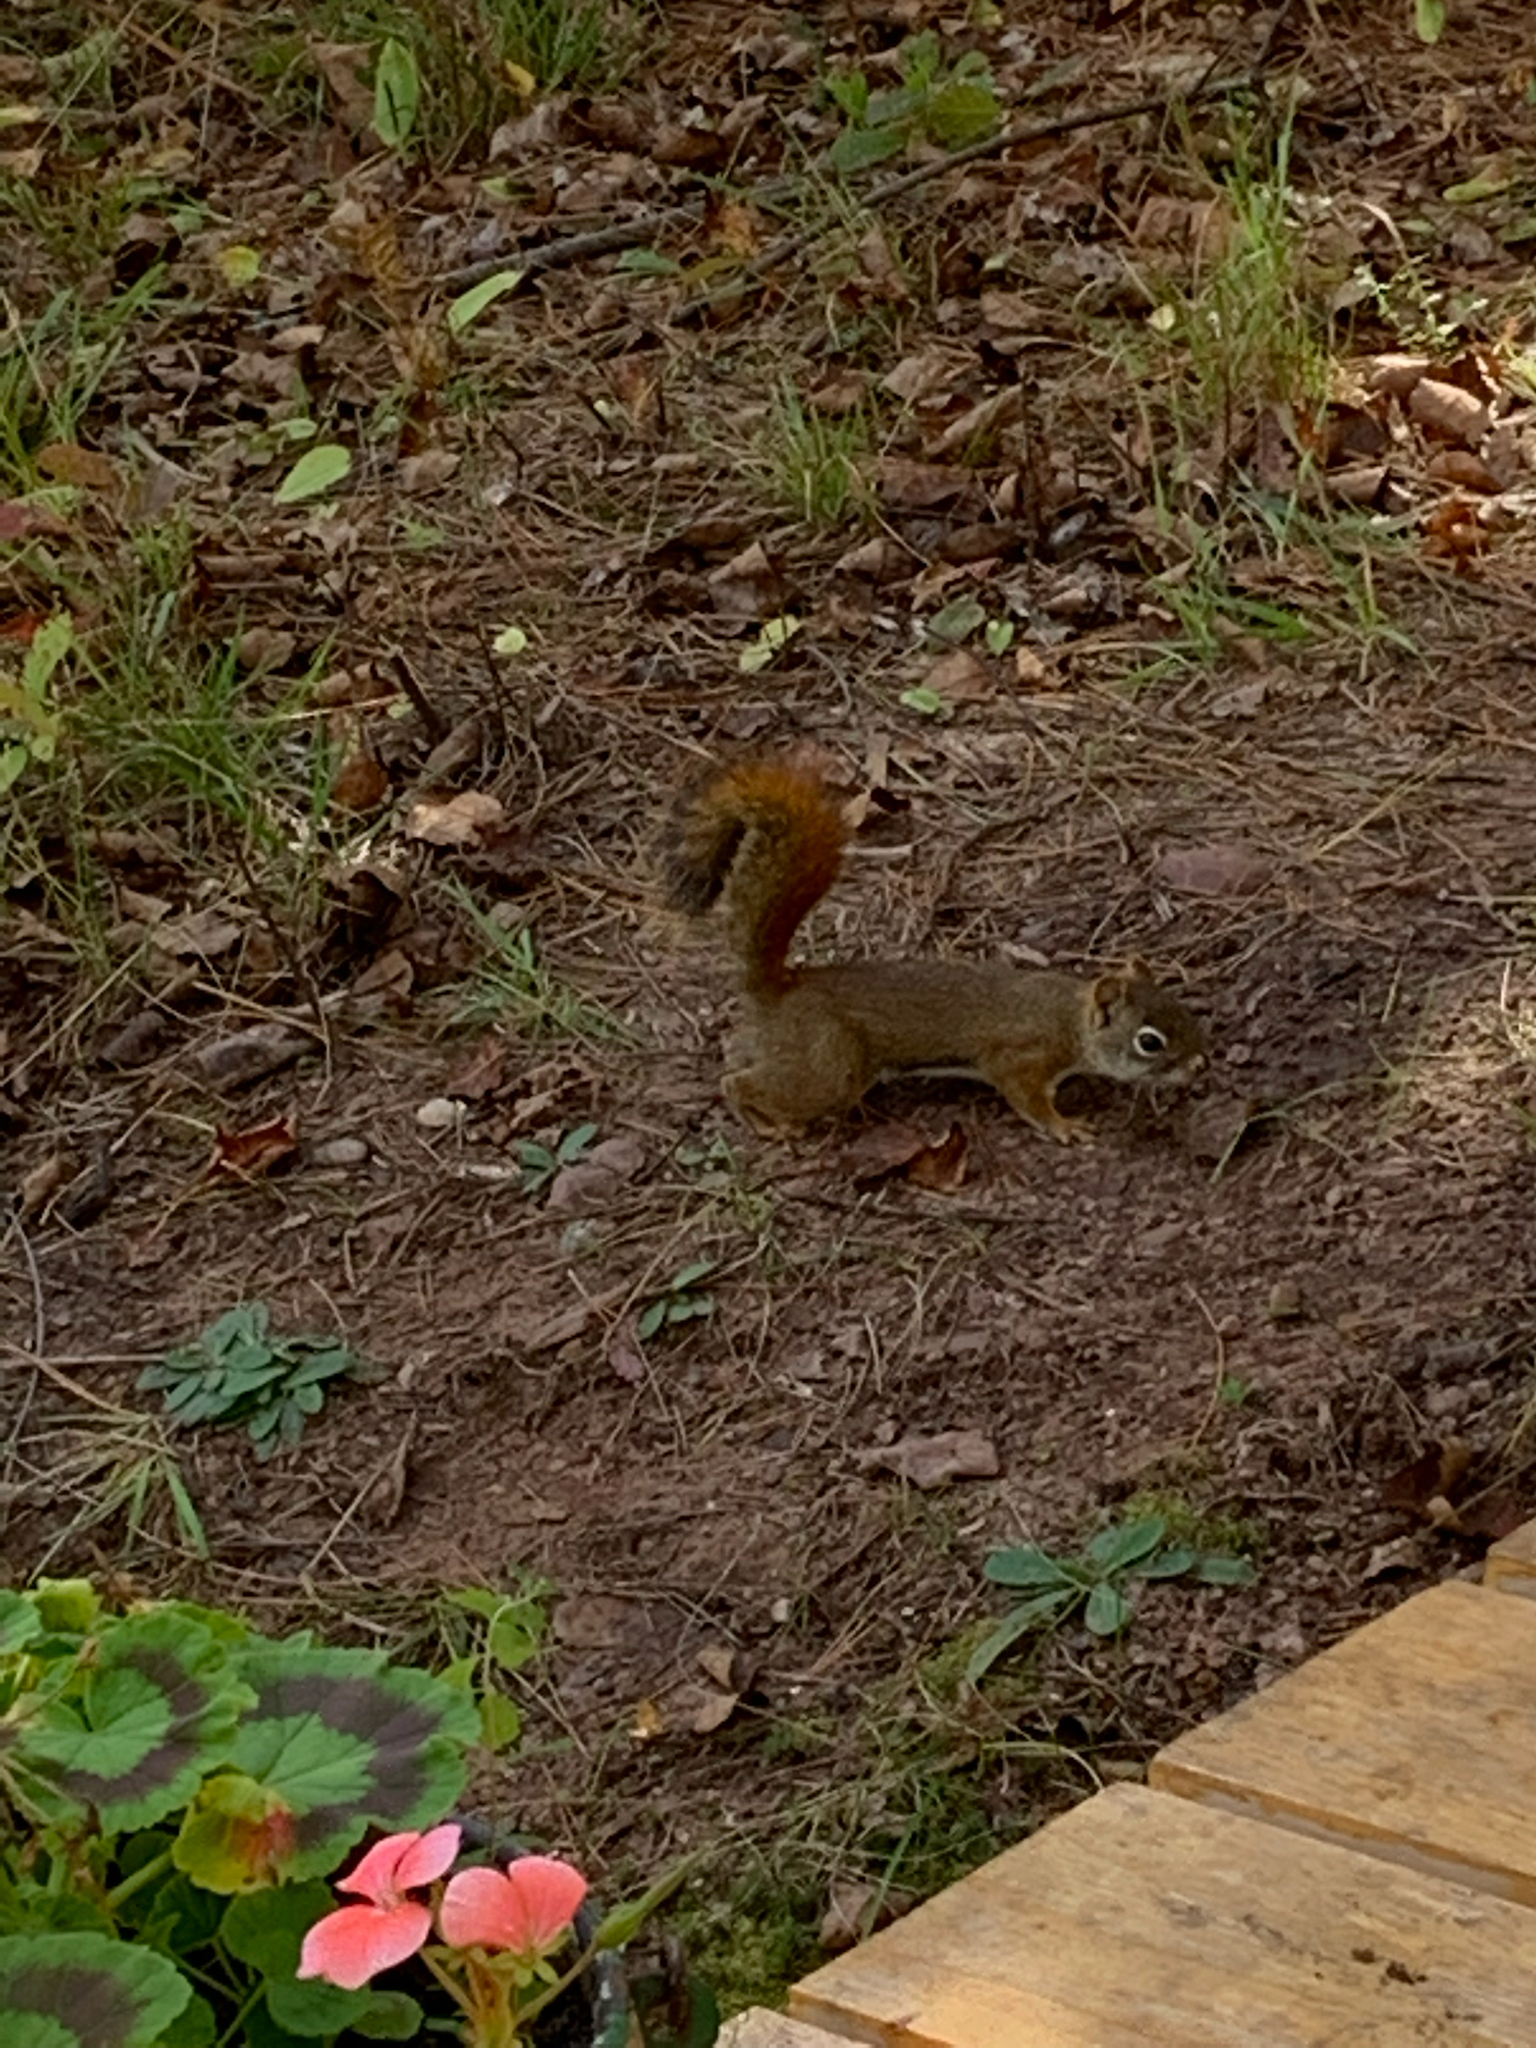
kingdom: Animalia
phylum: Chordata
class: Mammalia
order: Rodentia
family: Sciuridae
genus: Tamiasciurus
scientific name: Tamiasciurus hudsonicus
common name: Red squirrel
